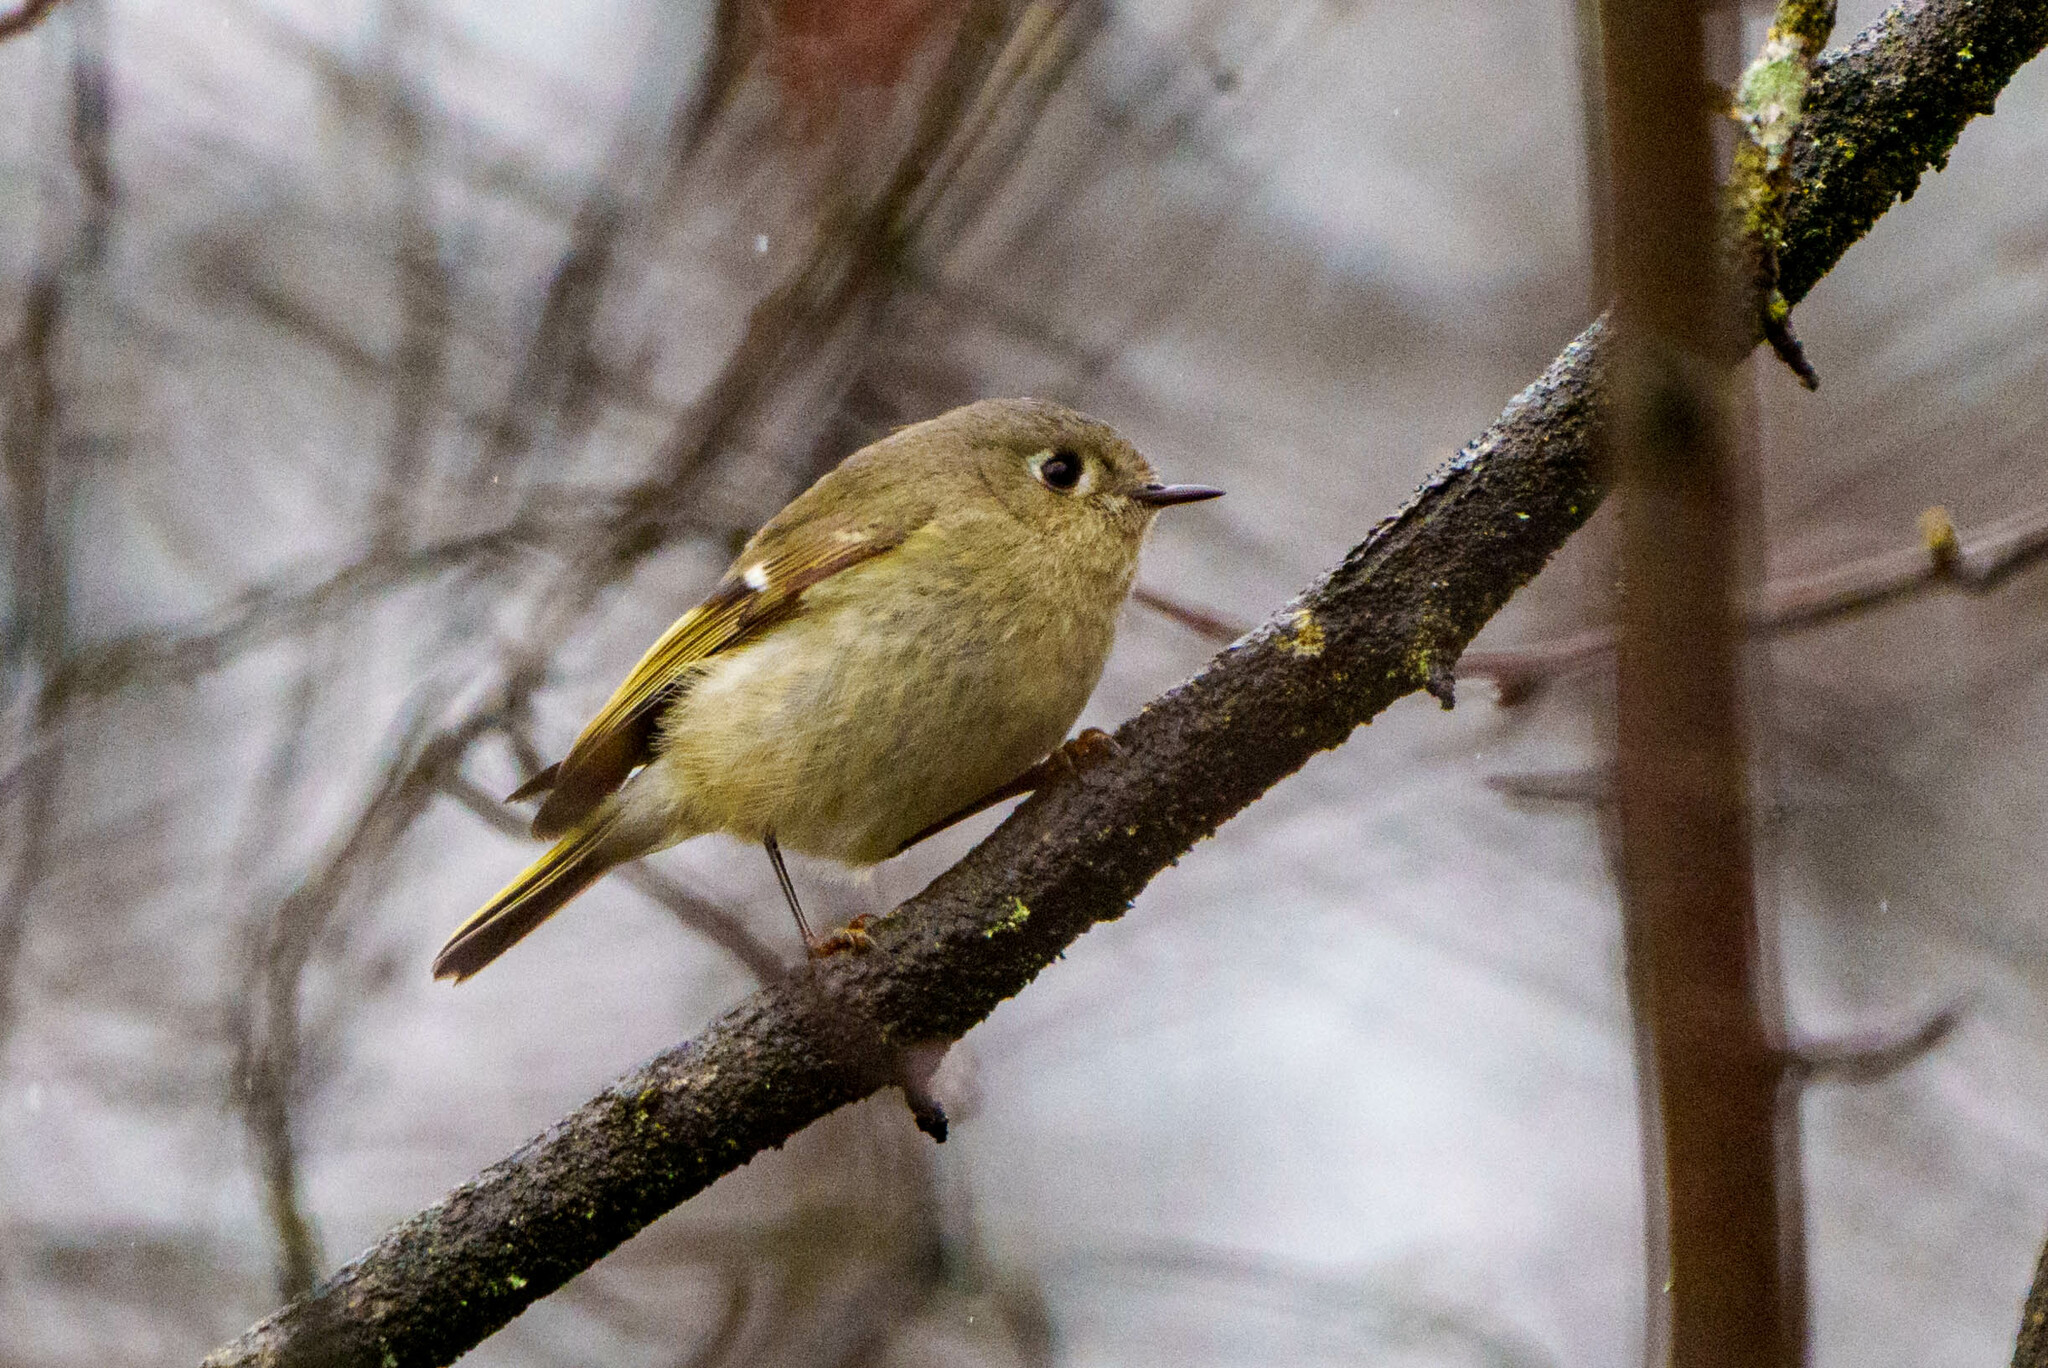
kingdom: Animalia
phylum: Chordata
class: Aves
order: Passeriformes
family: Regulidae
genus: Regulus
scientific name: Regulus calendula
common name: Ruby-crowned kinglet
